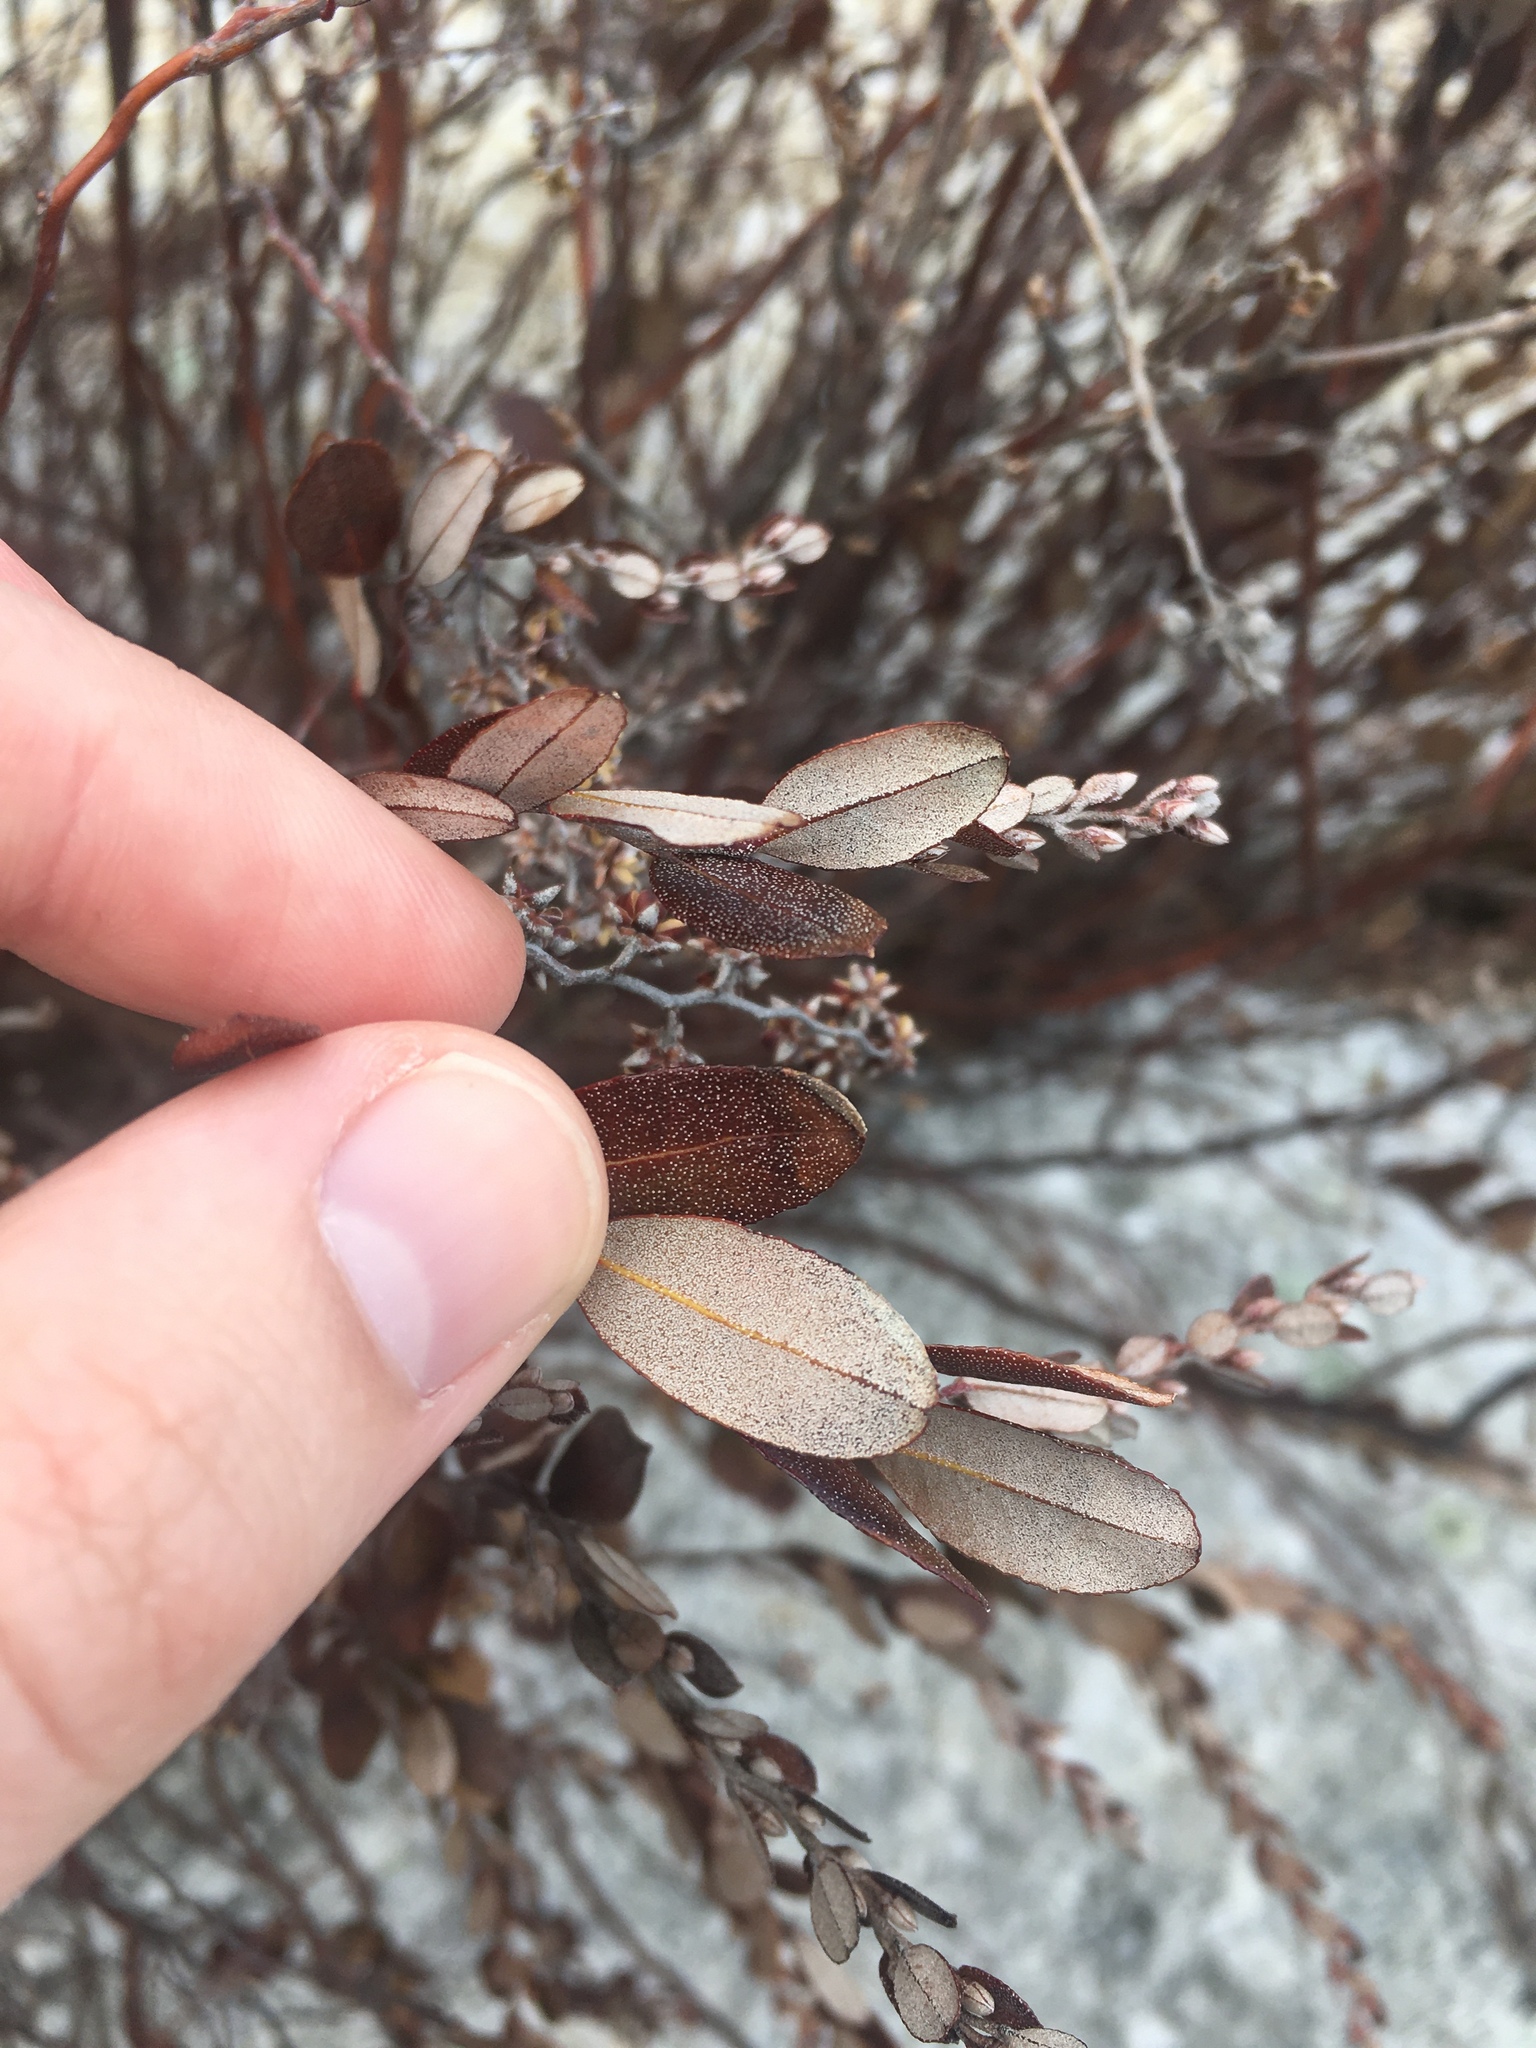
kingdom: Plantae
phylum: Tracheophyta
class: Magnoliopsida
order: Ericales
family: Ericaceae
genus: Chamaedaphne
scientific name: Chamaedaphne calyculata
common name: Leatherleaf
